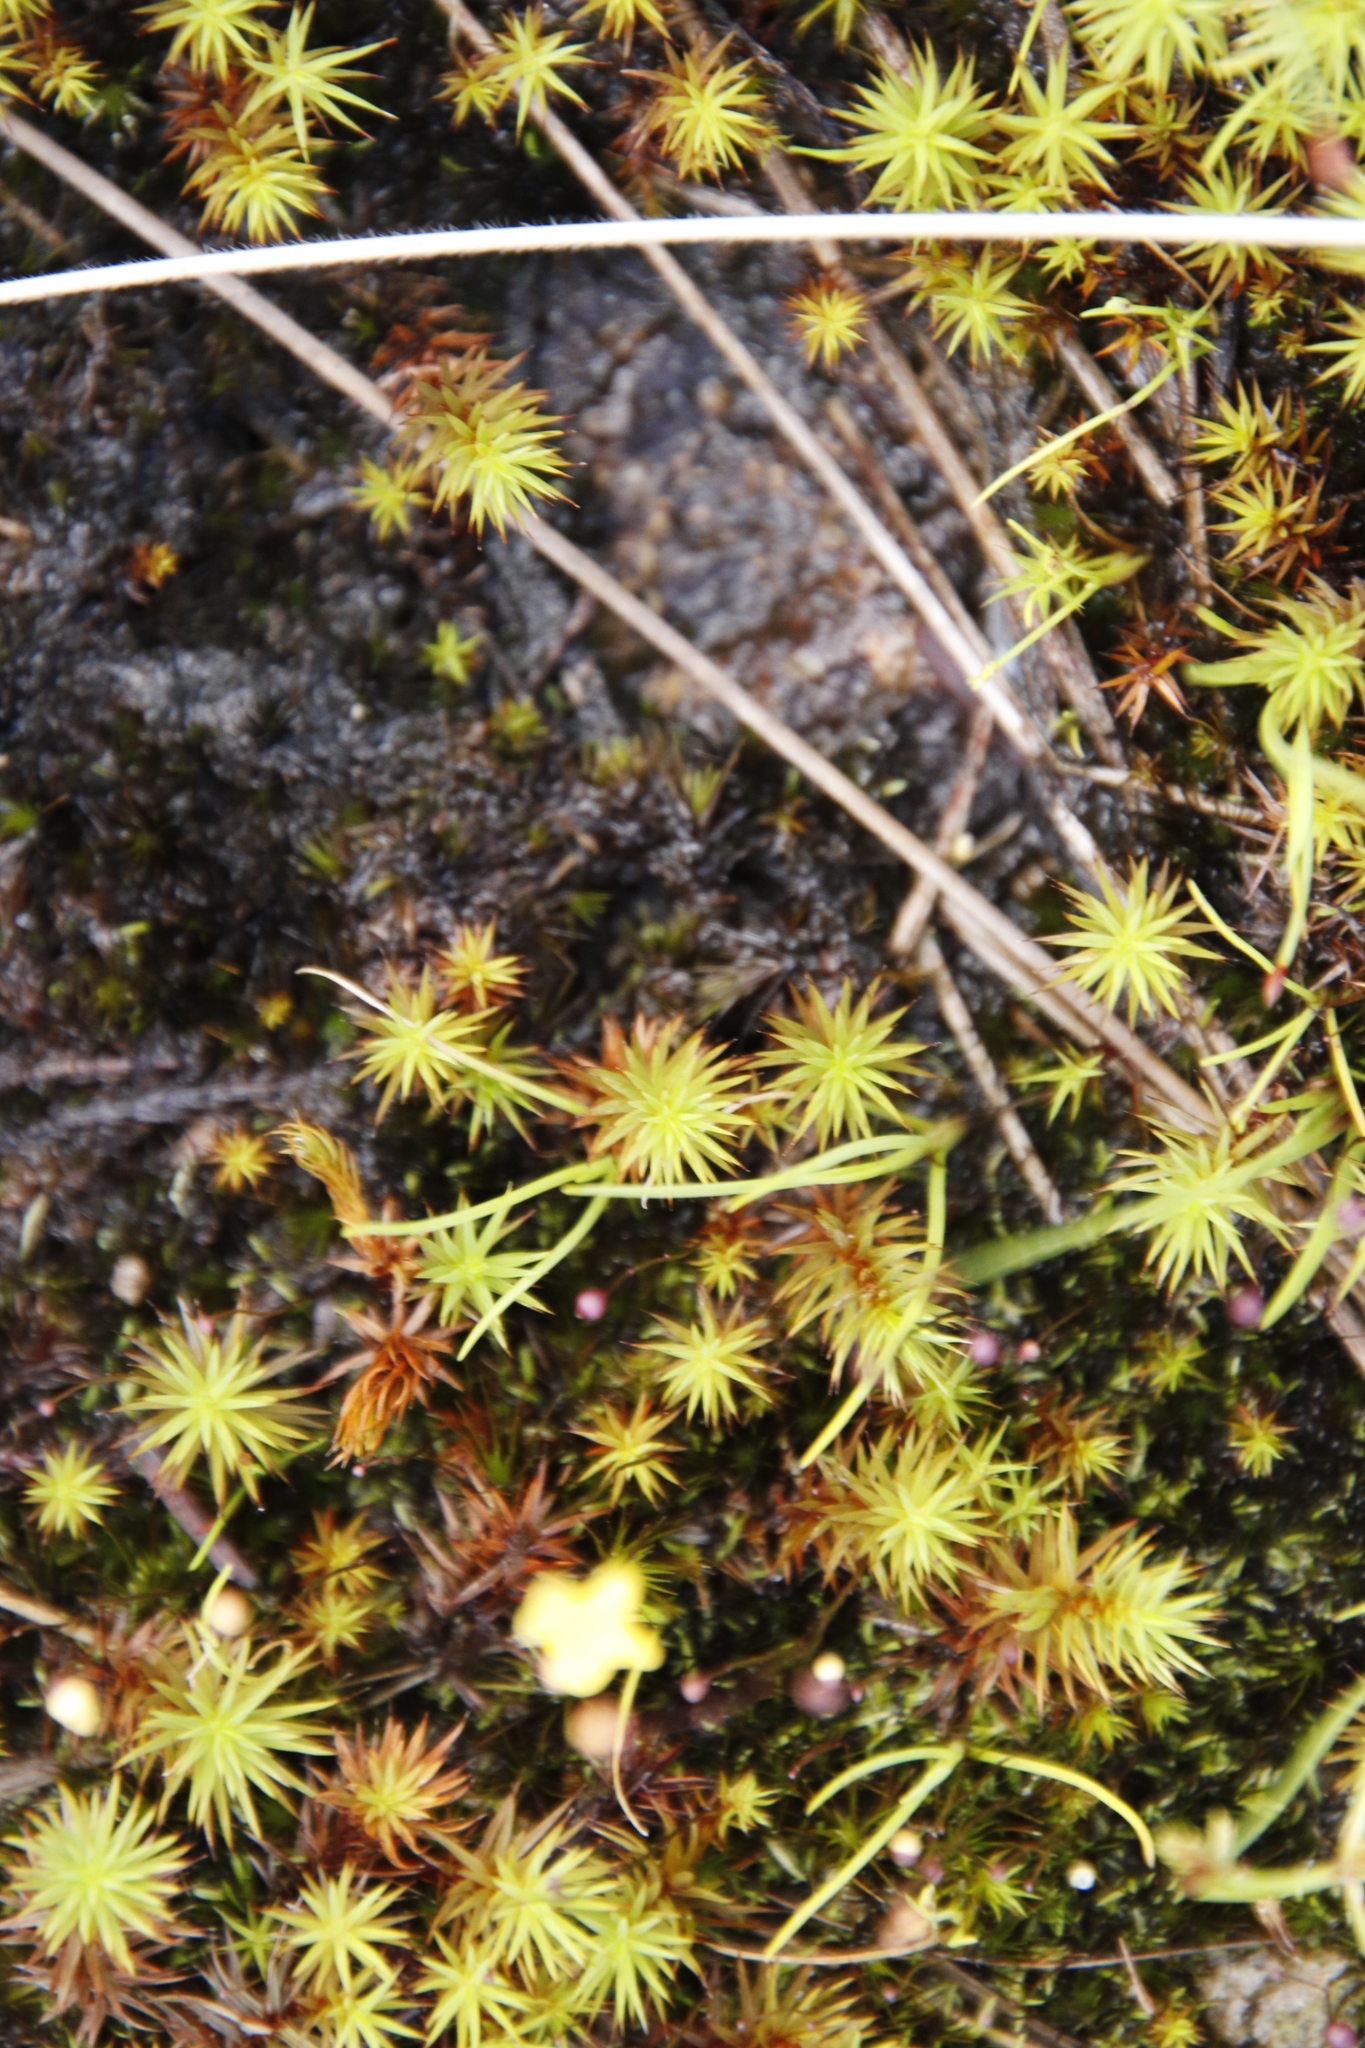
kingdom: Plantae
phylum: Bryophyta
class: Bryopsida
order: Bartramiales
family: Bartramiaceae
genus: Anacolia
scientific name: Anacolia menziesii
